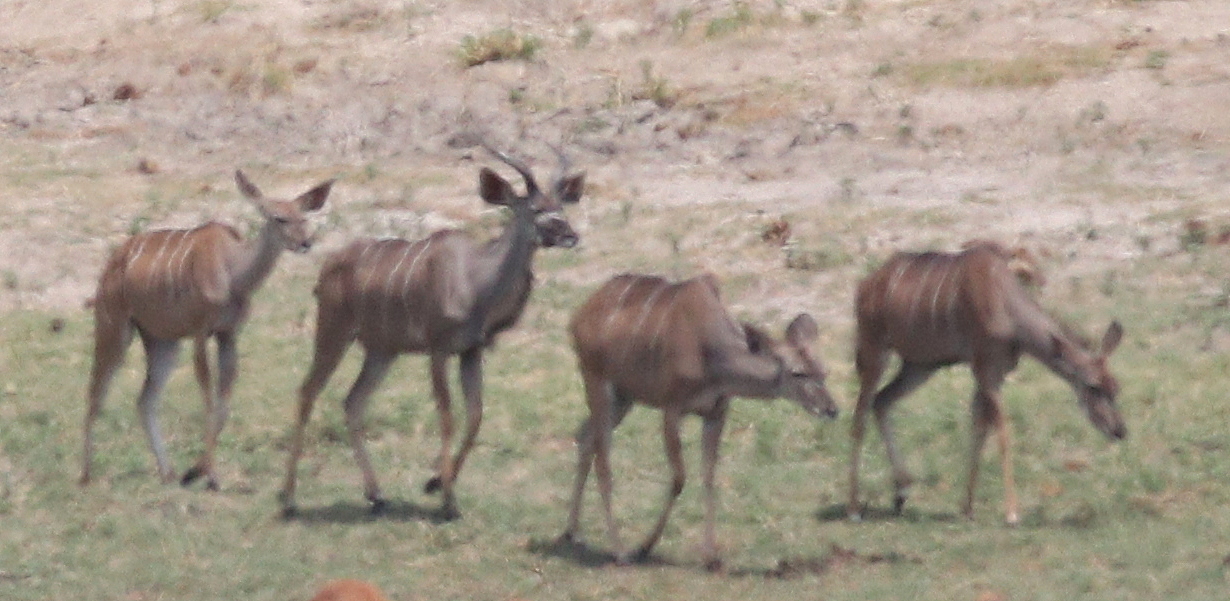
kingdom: Animalia
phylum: Chordata
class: Mammalia
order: Artiodactyla
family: Bovidae
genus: Tragelaphus
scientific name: Tragelaphus strepsiceros
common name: Greater kudu
